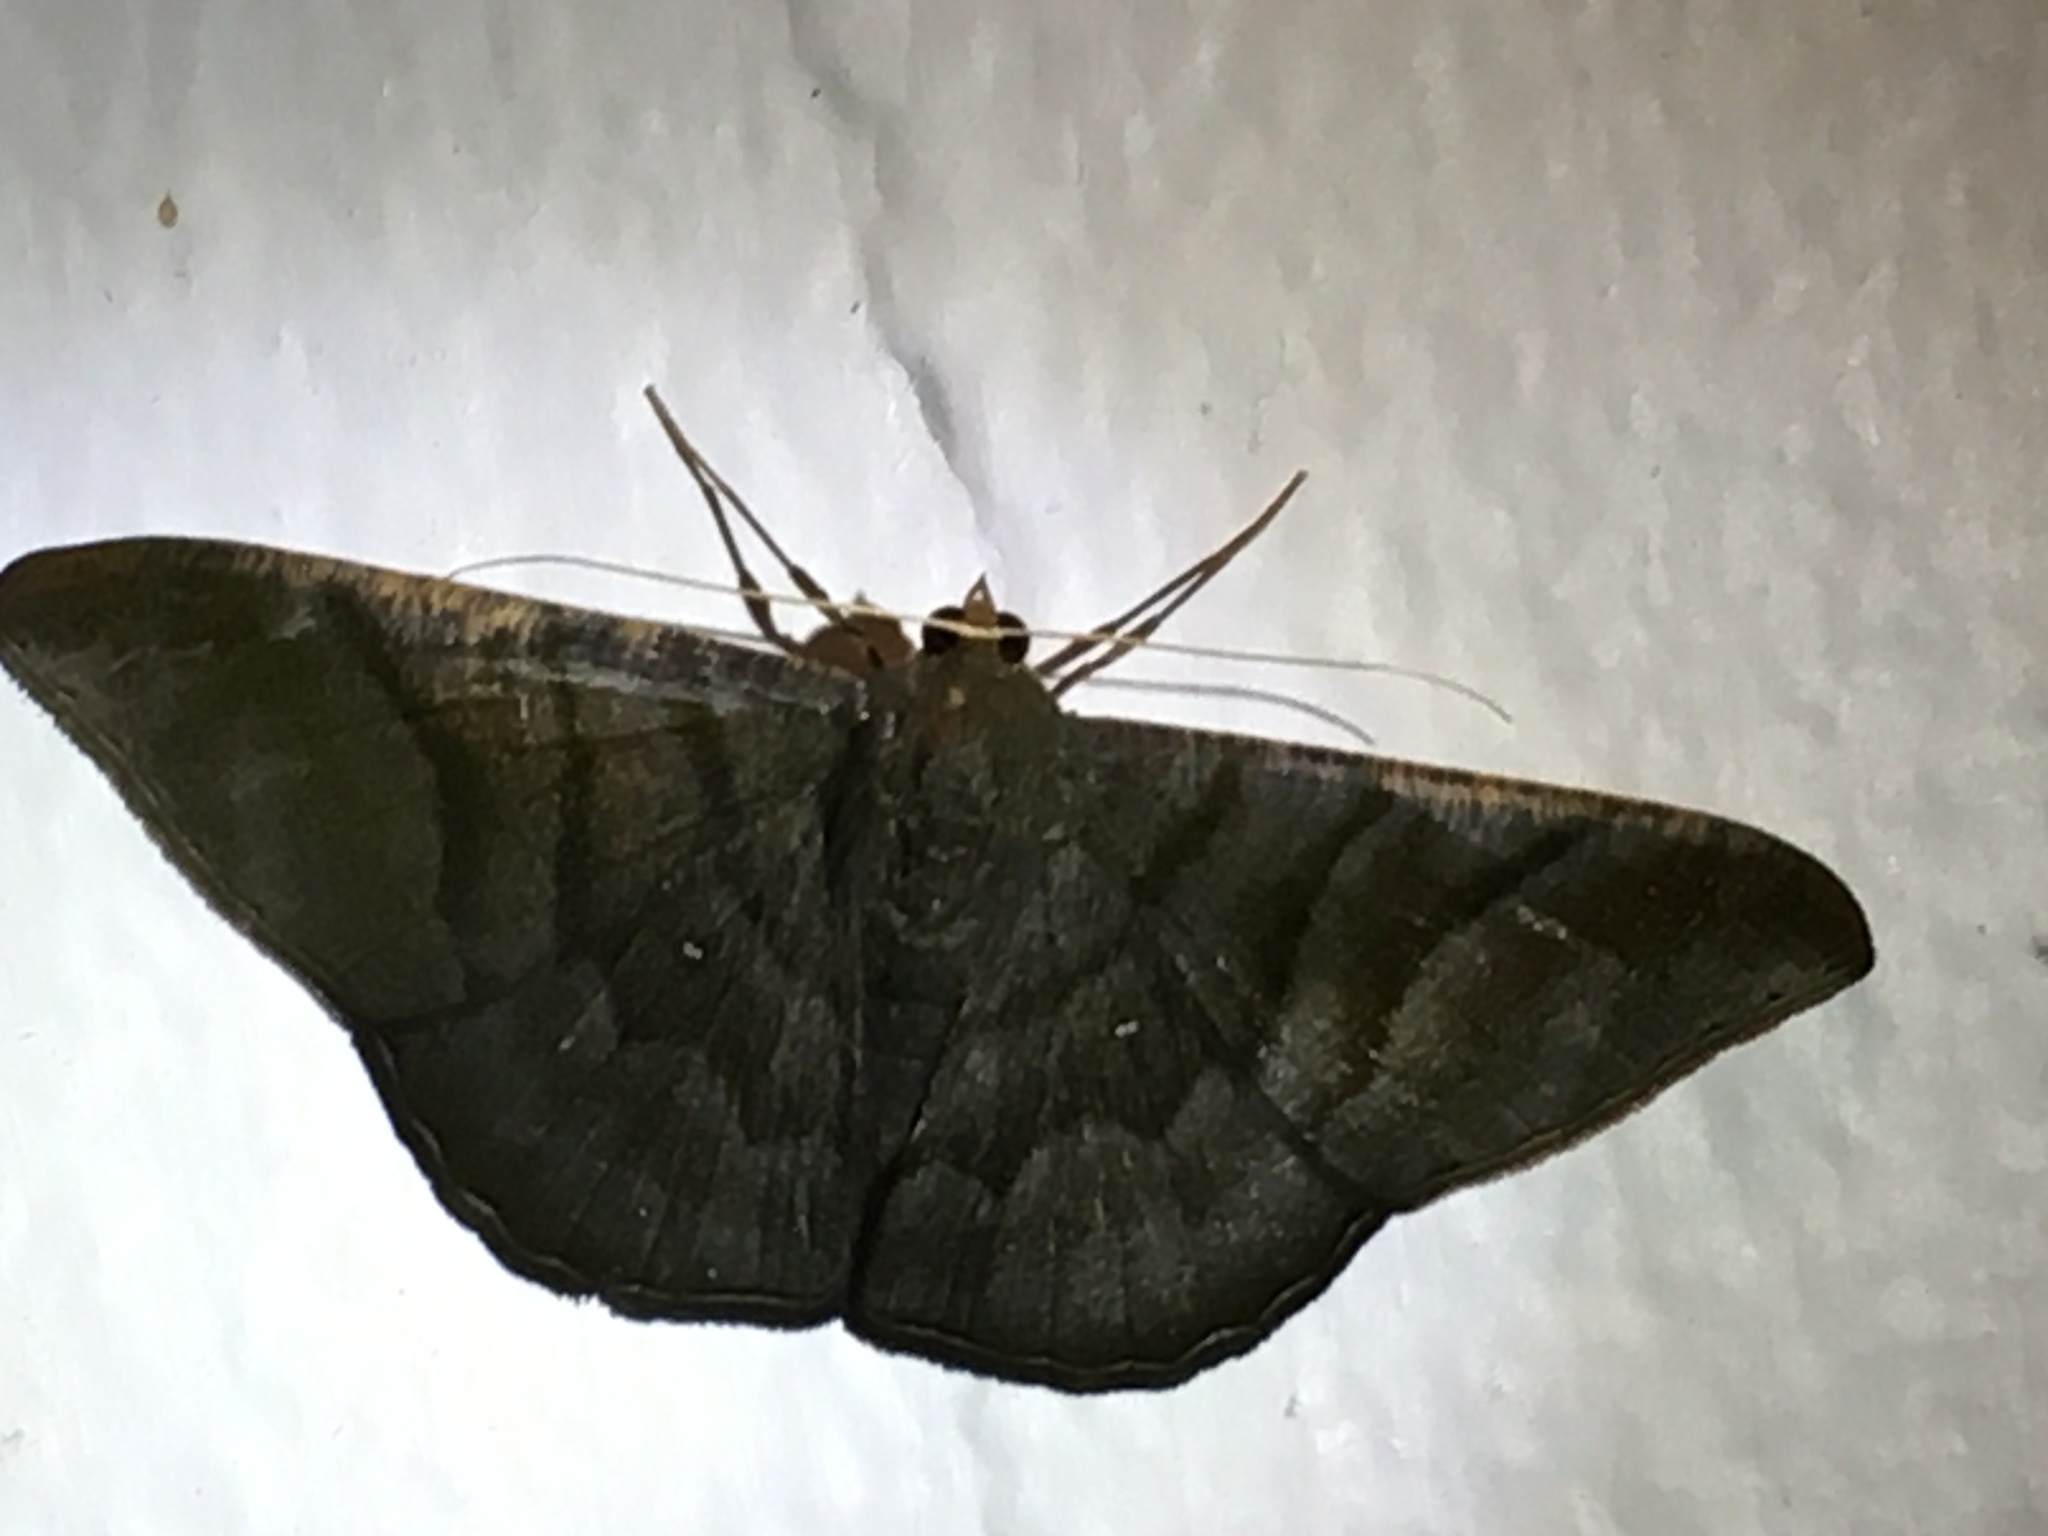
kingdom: Animalia
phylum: Arthropoda
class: Insecta
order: Lepidoptera
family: Geometridae
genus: Sphacelodes
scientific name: Sphacelodes vulneraria
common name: Looper moth
